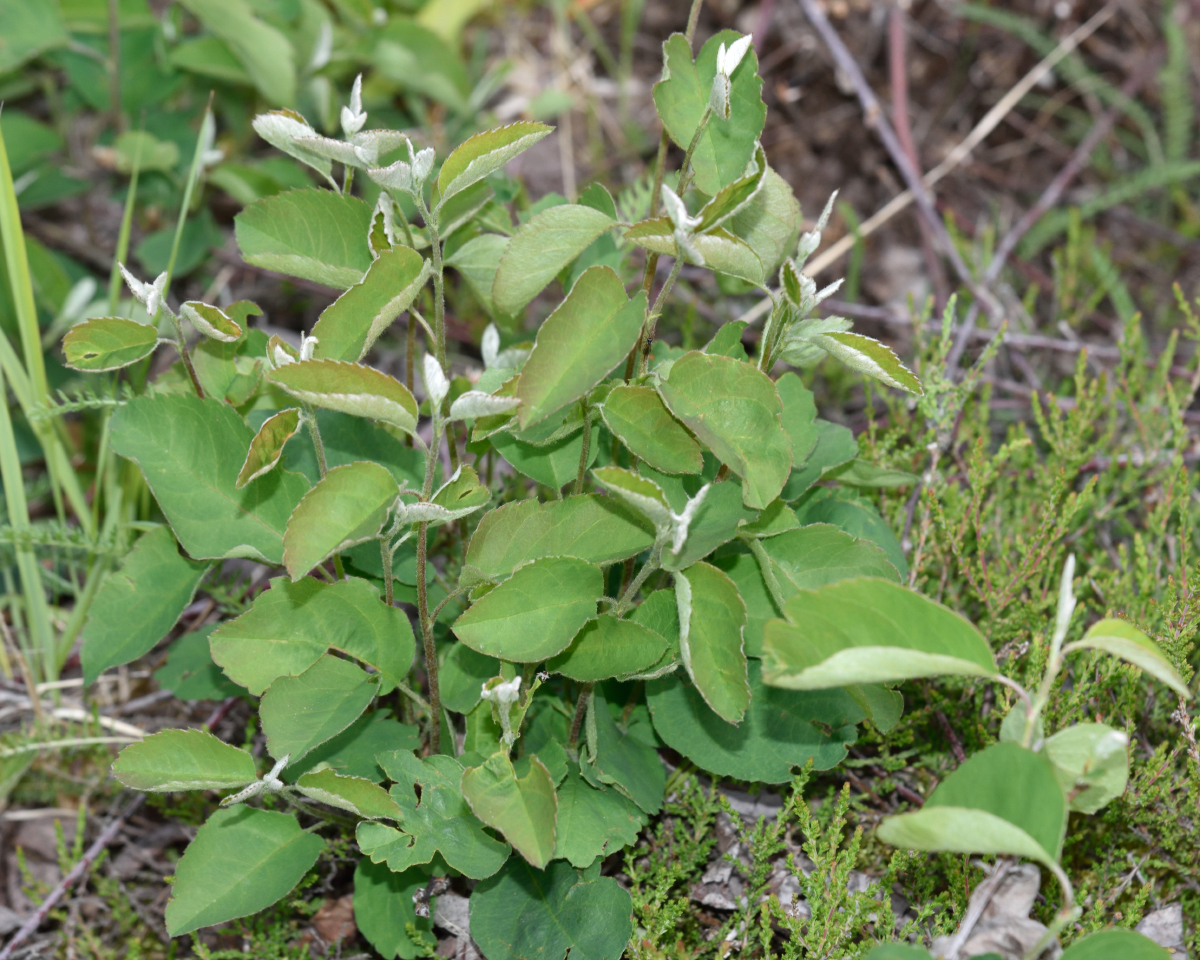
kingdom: Plantae
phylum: Tracheophyta
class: Magnoliopsida
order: Rosales
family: Rosaceae
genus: Amelanchier
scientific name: Amelanchier
